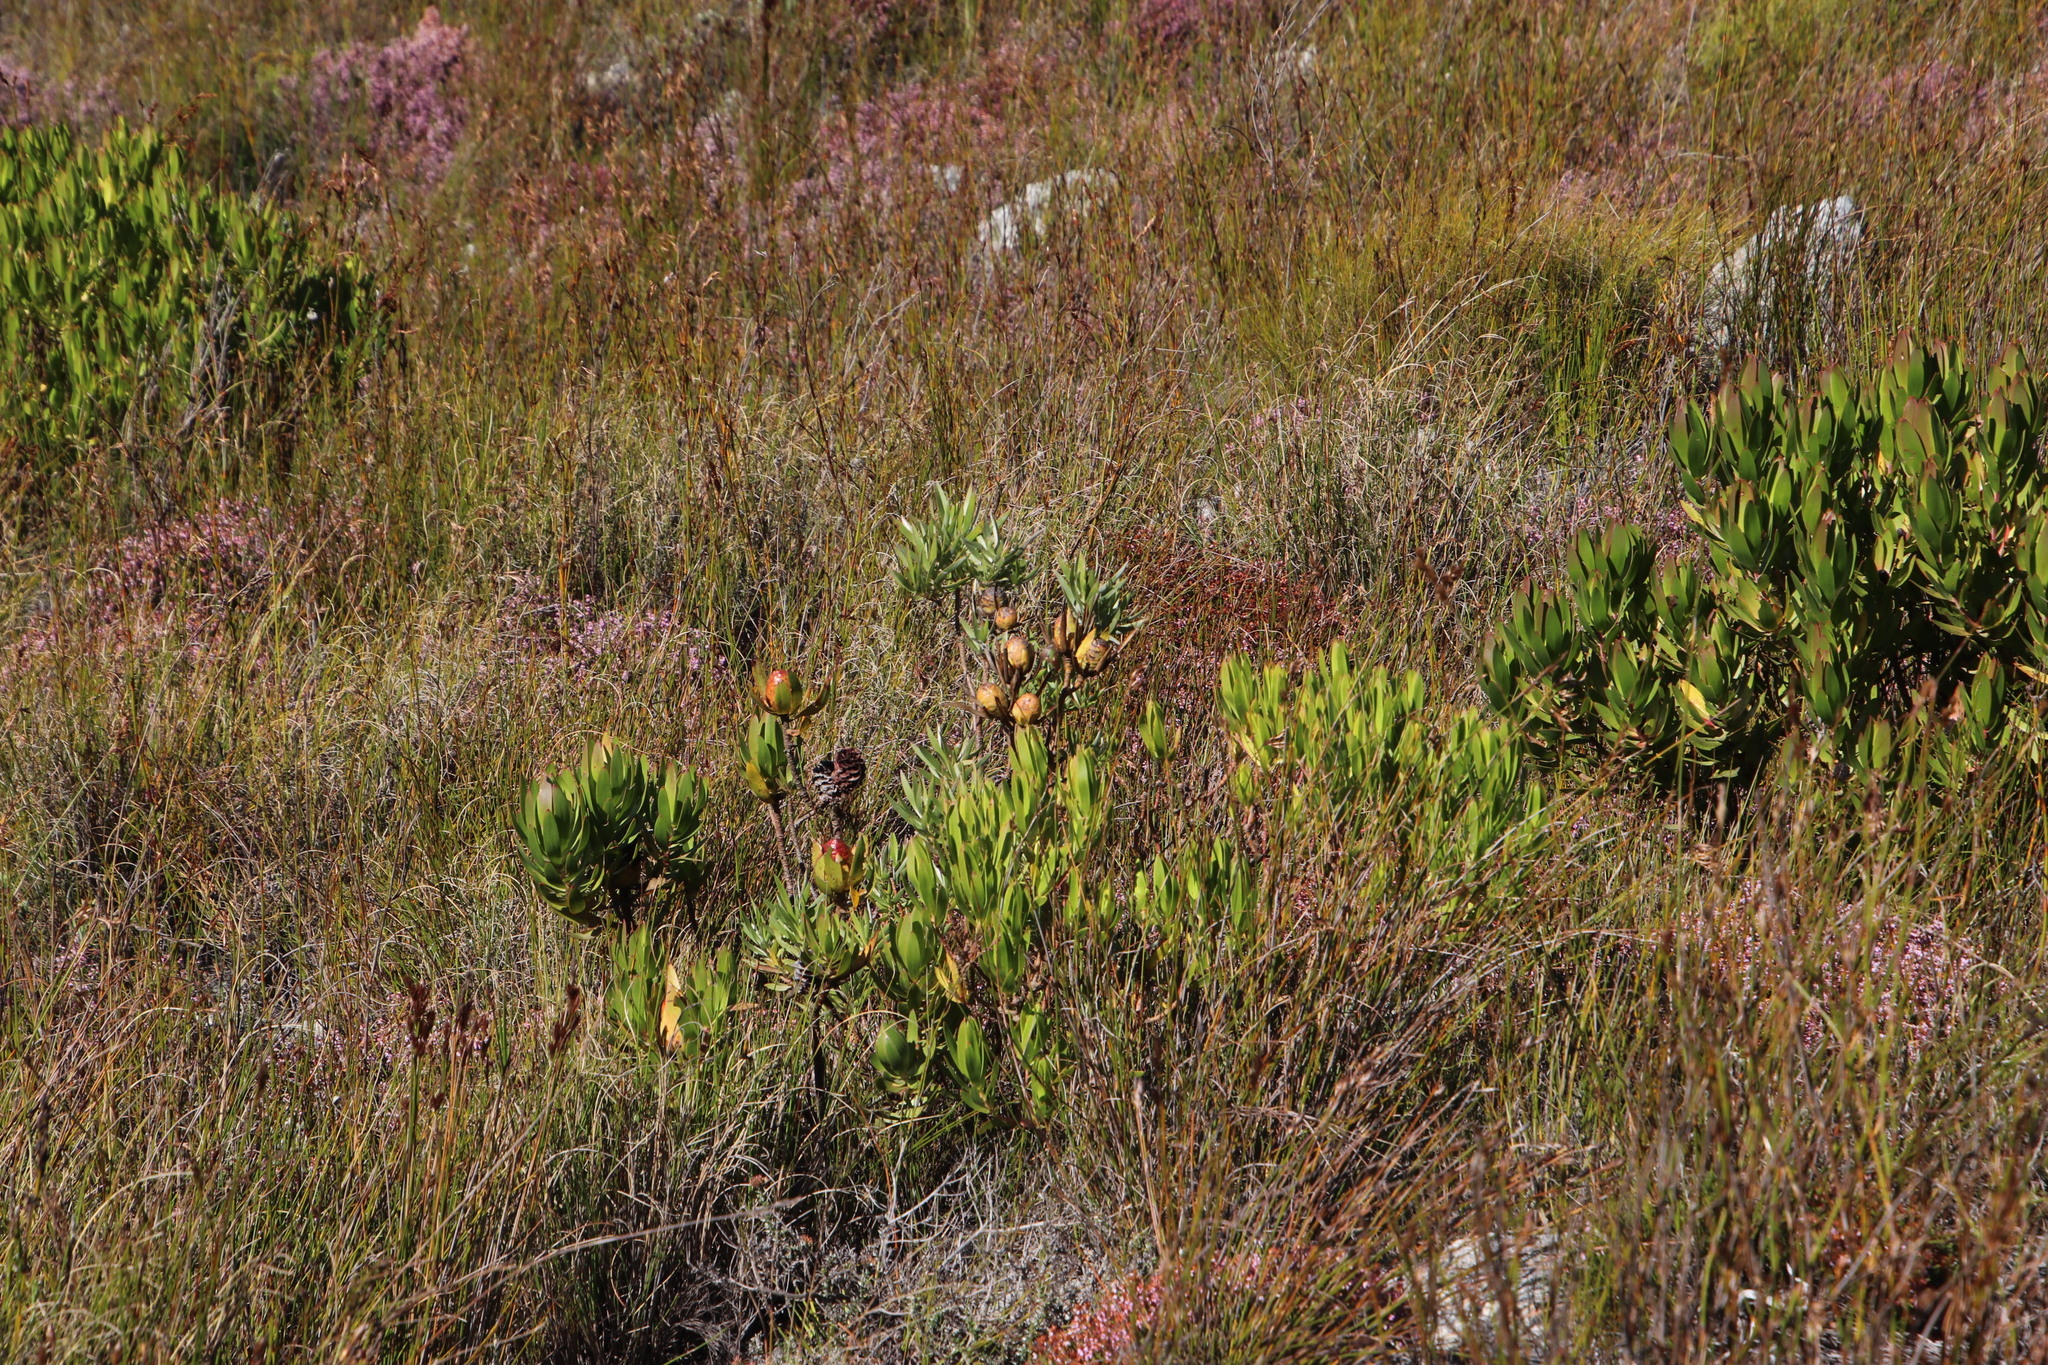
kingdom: Plantae
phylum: Tracheophyta
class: Magnoliopsida
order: Proteales
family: Proteaceae
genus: Leucadendron
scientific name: Leucadendron xanthoconus
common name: Sickle-leaf conebush
